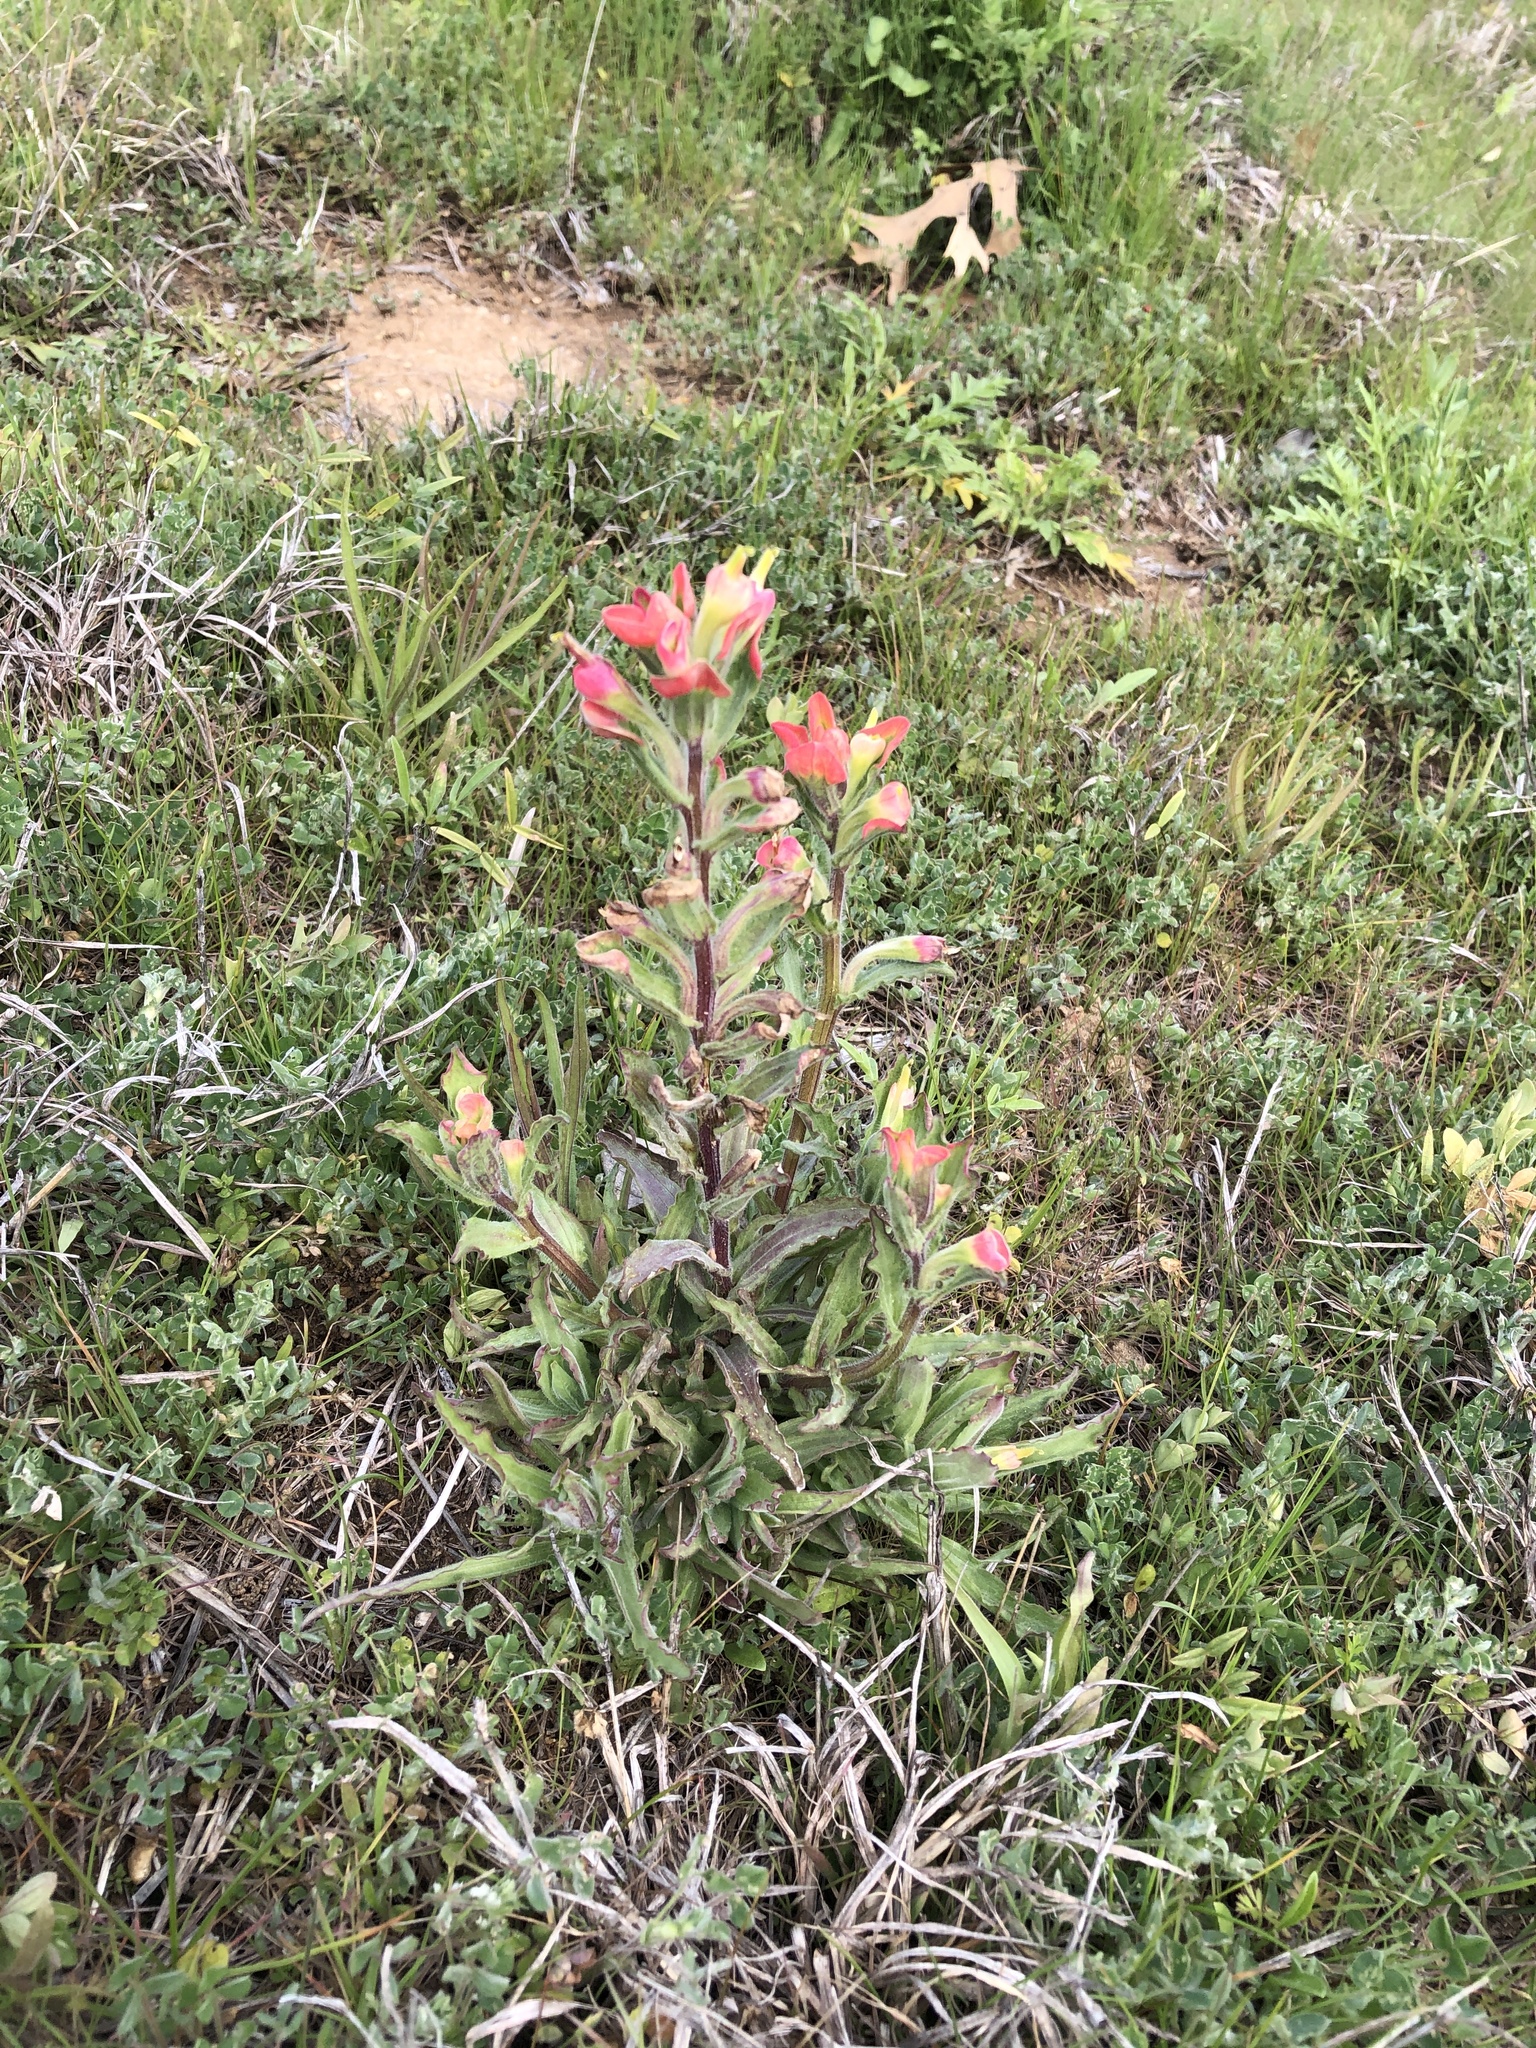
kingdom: Plantae
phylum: Tracheophyta
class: Magnoliopsida
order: Lamiales
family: Orobanchaceae
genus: Castilleja
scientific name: Castilleja indivisa
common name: Texas paintbrush
